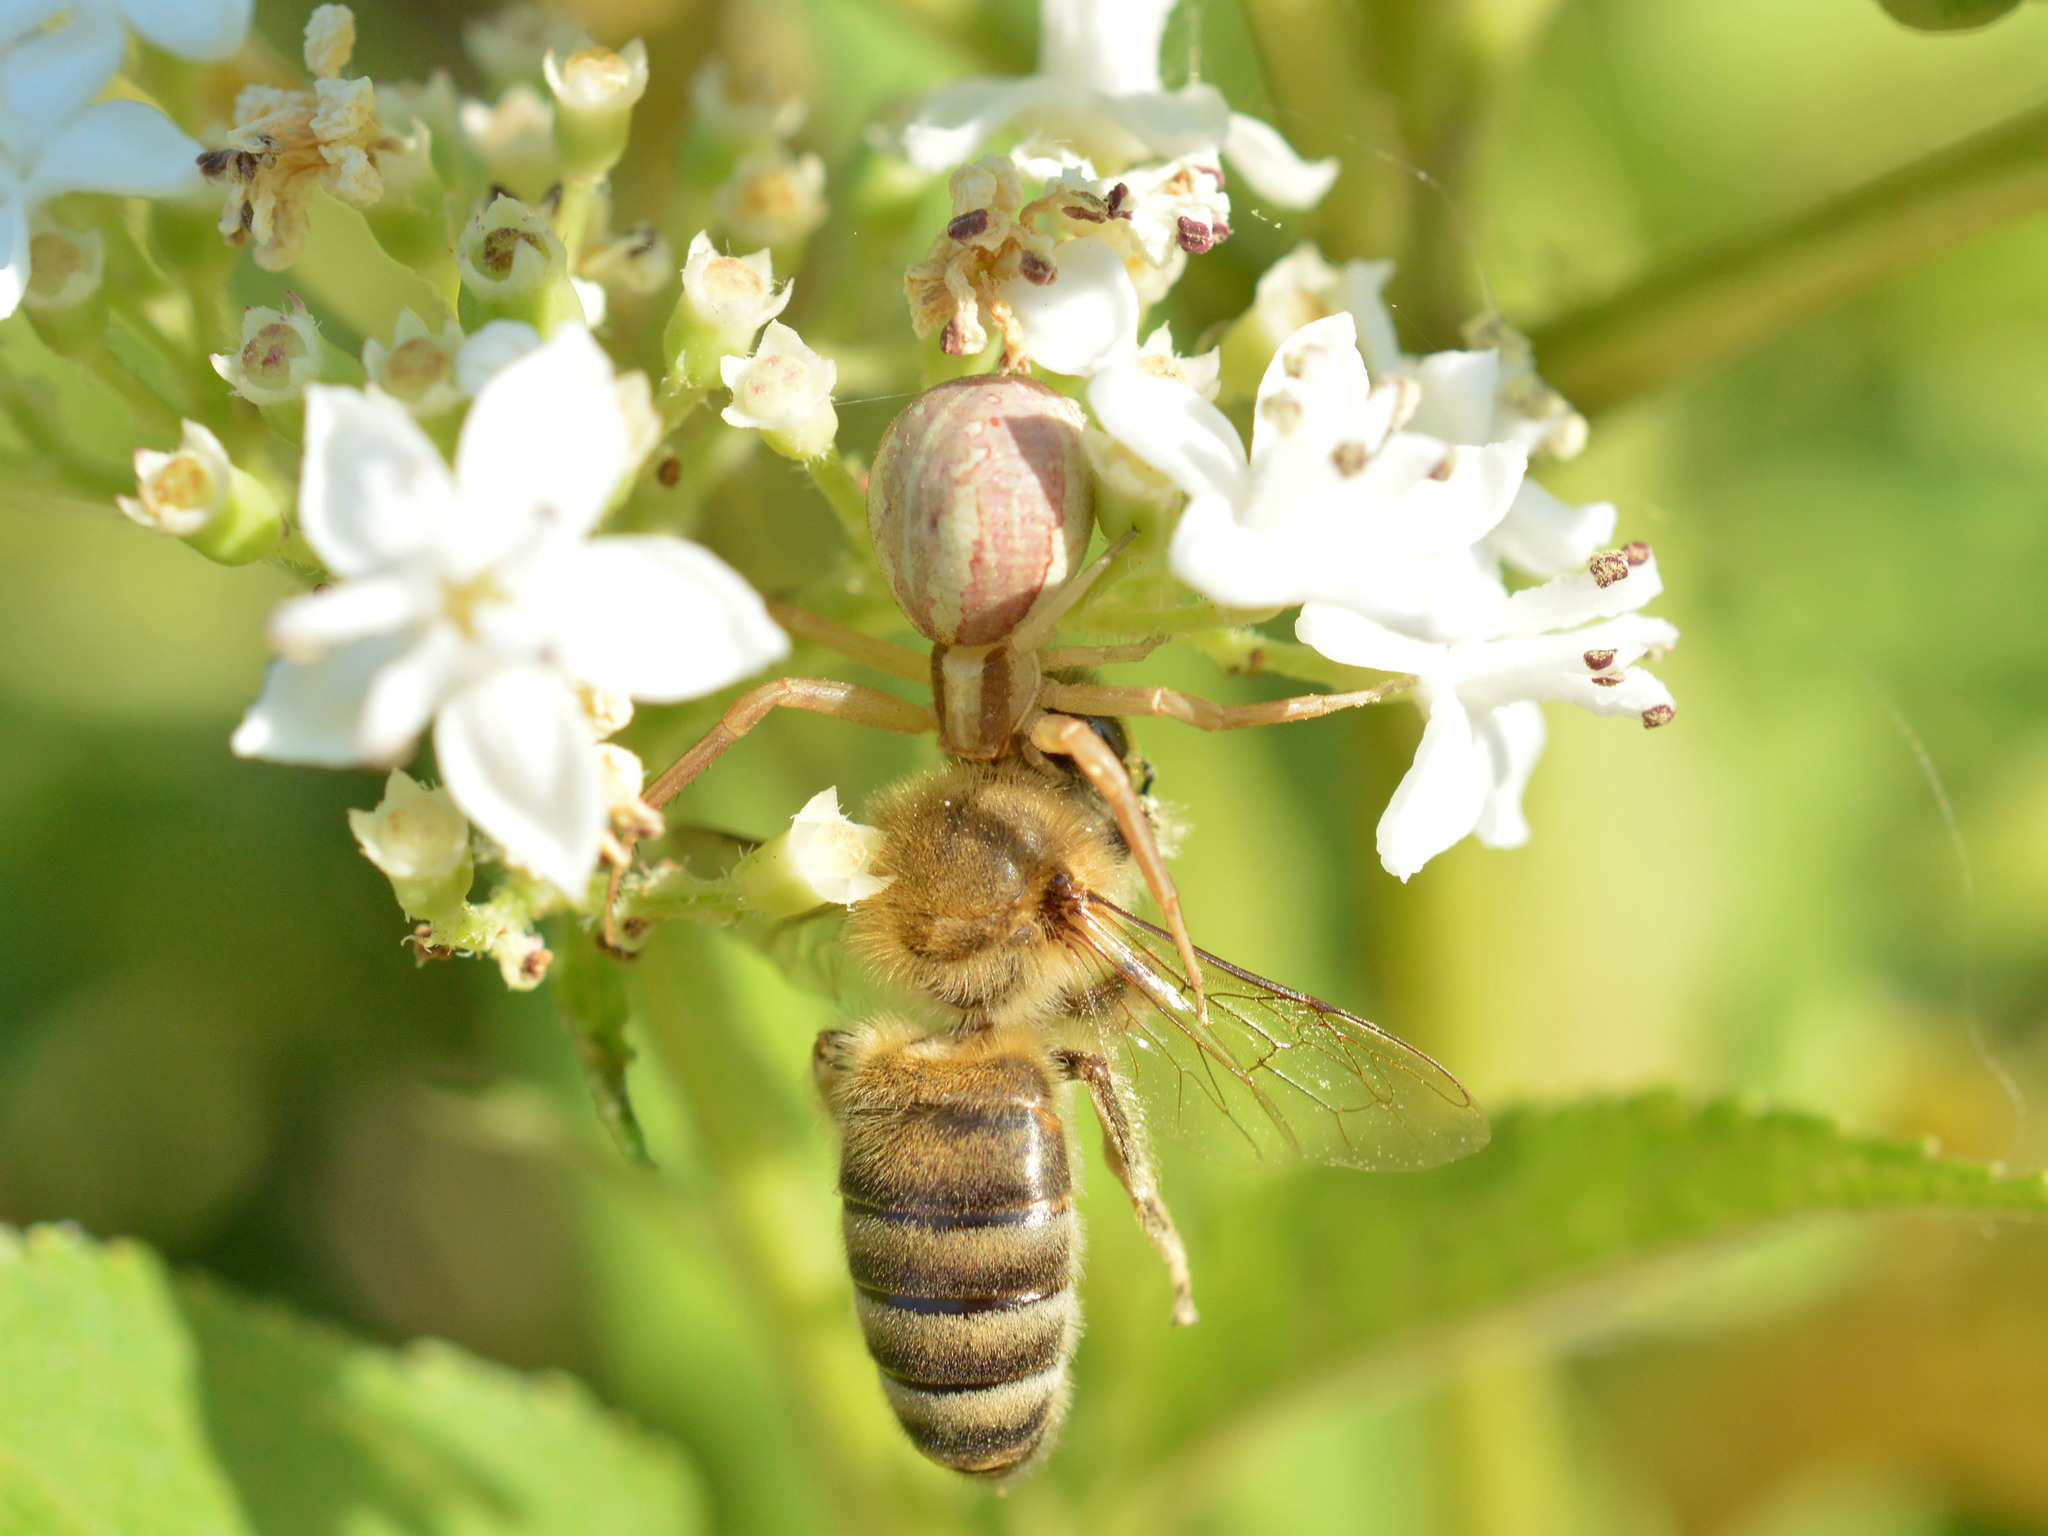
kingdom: Animalia
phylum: Arthropoda
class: Arachnida
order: Araneae
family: Thomisidae
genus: Runcinia
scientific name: Runcinia grammica
